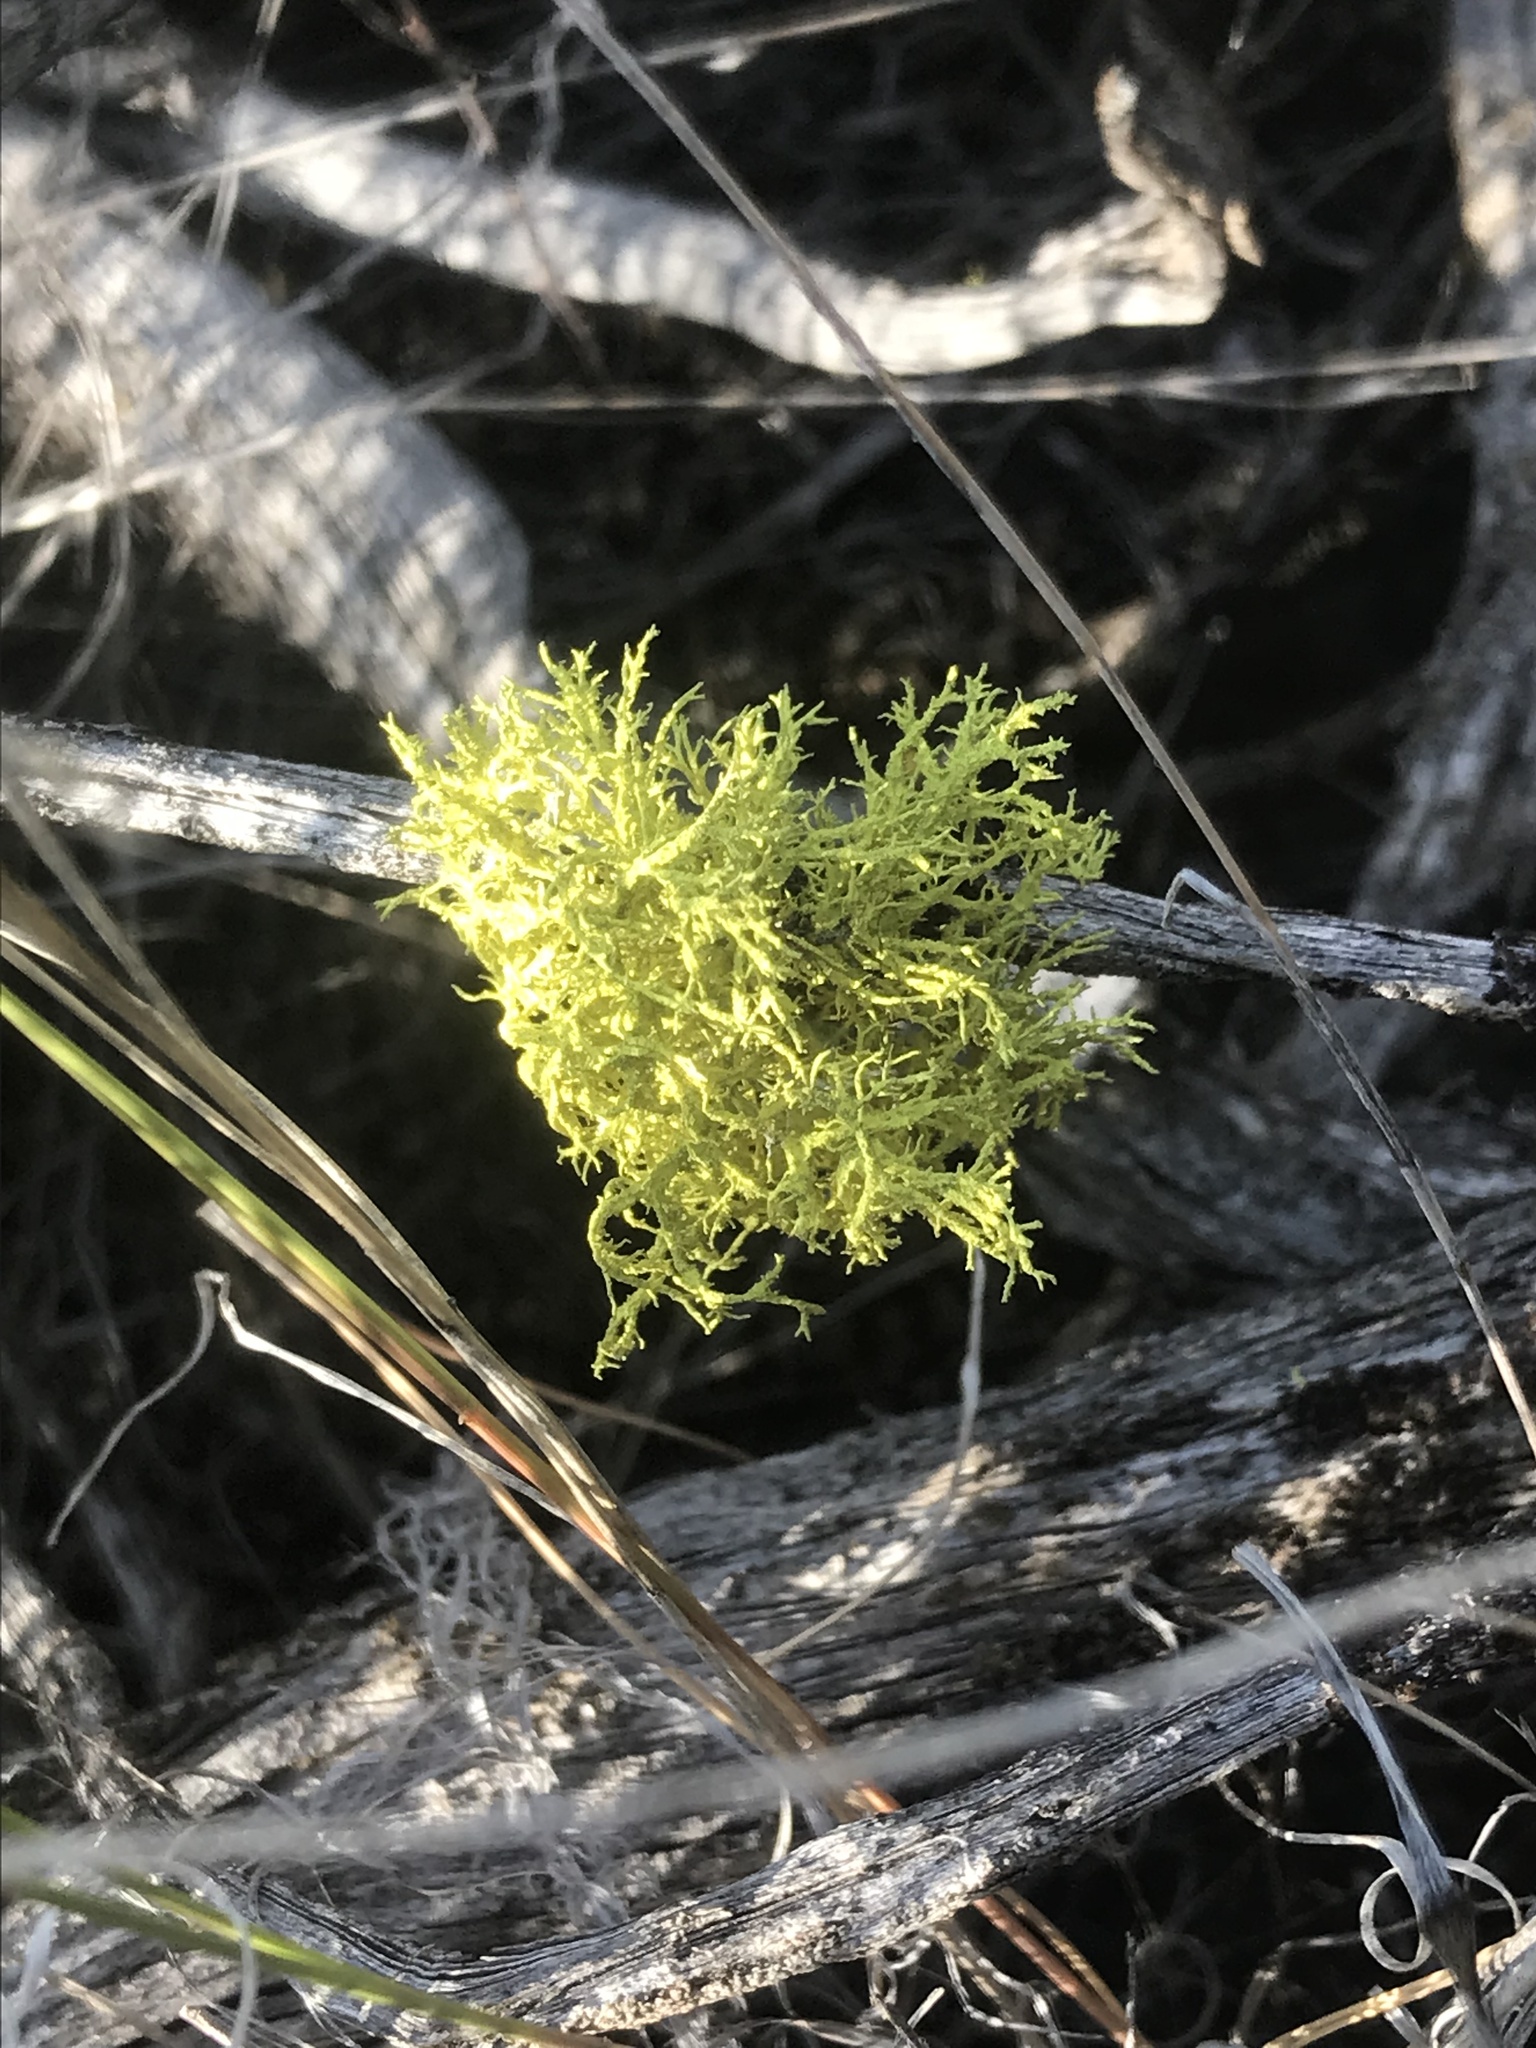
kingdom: Fungi
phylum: Ascomycota
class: Lecanoromycetes
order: Lecanorales
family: Parmeliaceae
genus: Letharia
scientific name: Letharia vulpina
